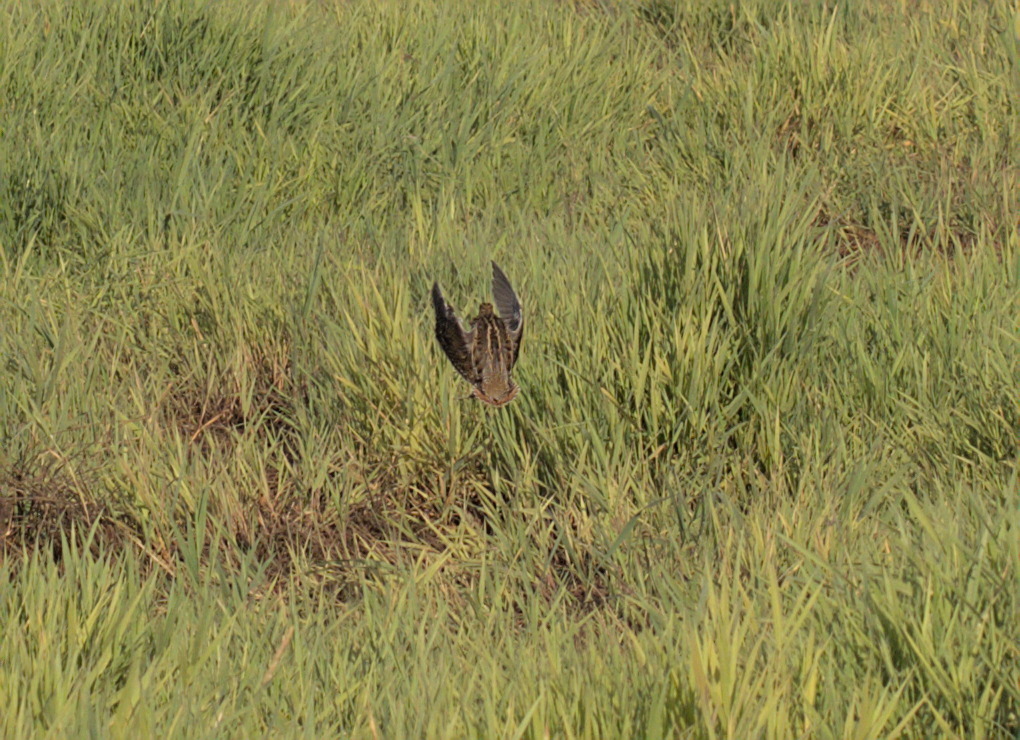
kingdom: Animalia
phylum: Chordata
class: Aves
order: Charadriiformes
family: Scolopacidae
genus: Gallinago
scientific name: Gallinago delicata
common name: Wilson's snipe
